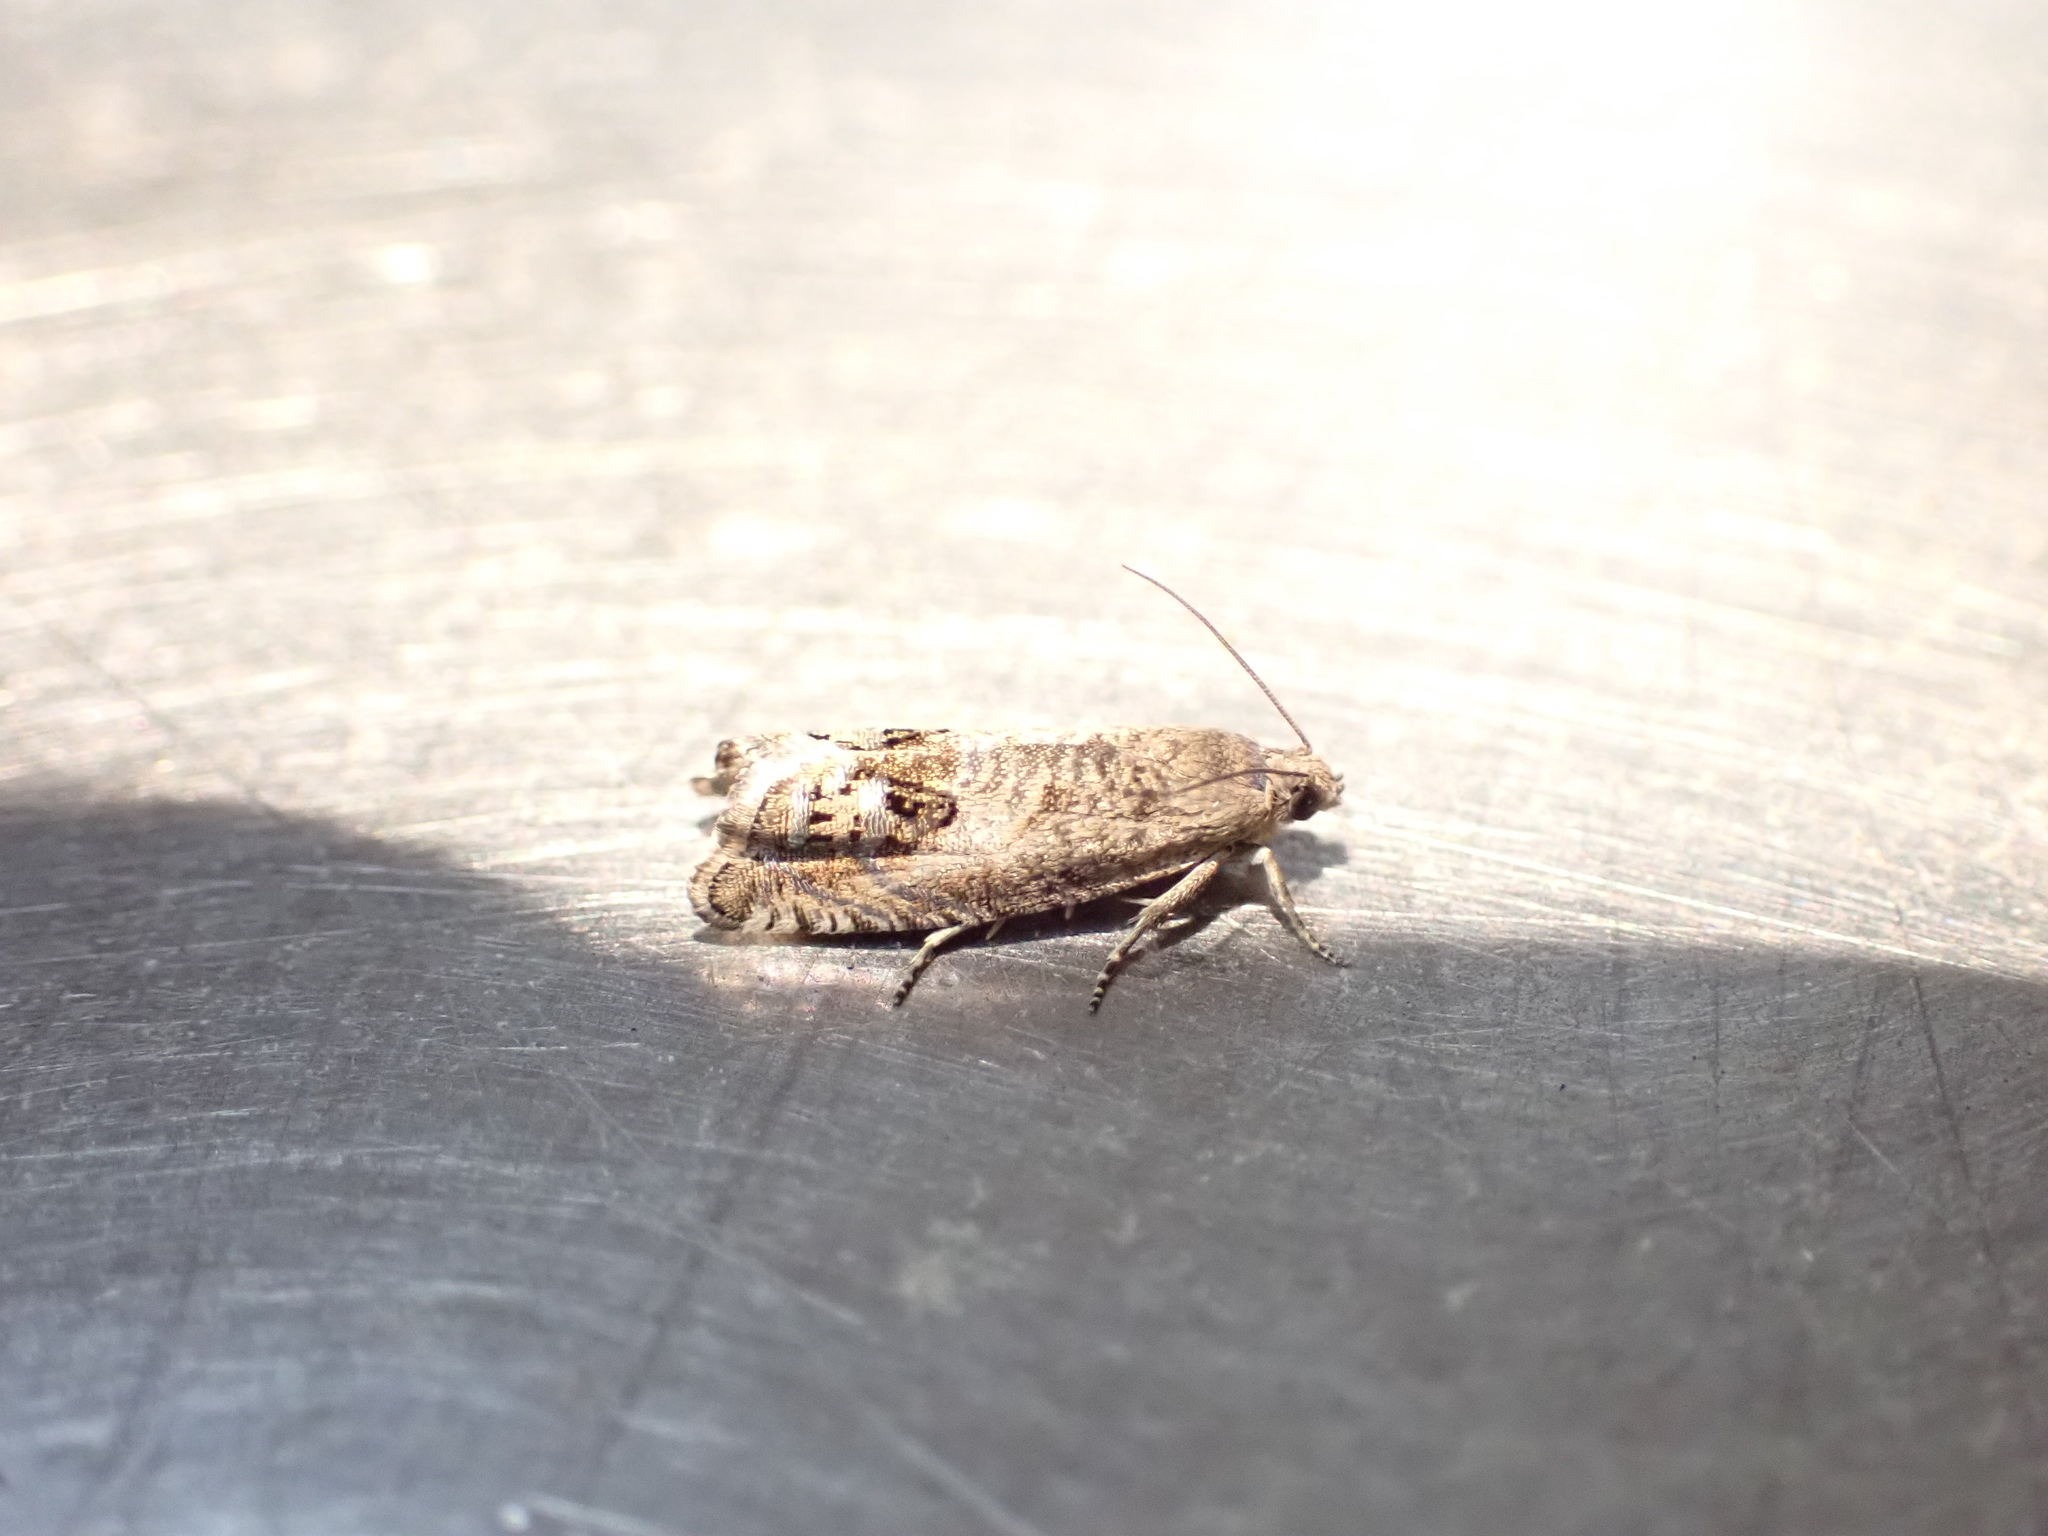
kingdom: Animalia
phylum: Arthropoda
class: Insecta
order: Lepidoptera
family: Tortricidae
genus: Cydia
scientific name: Cydia succedana
